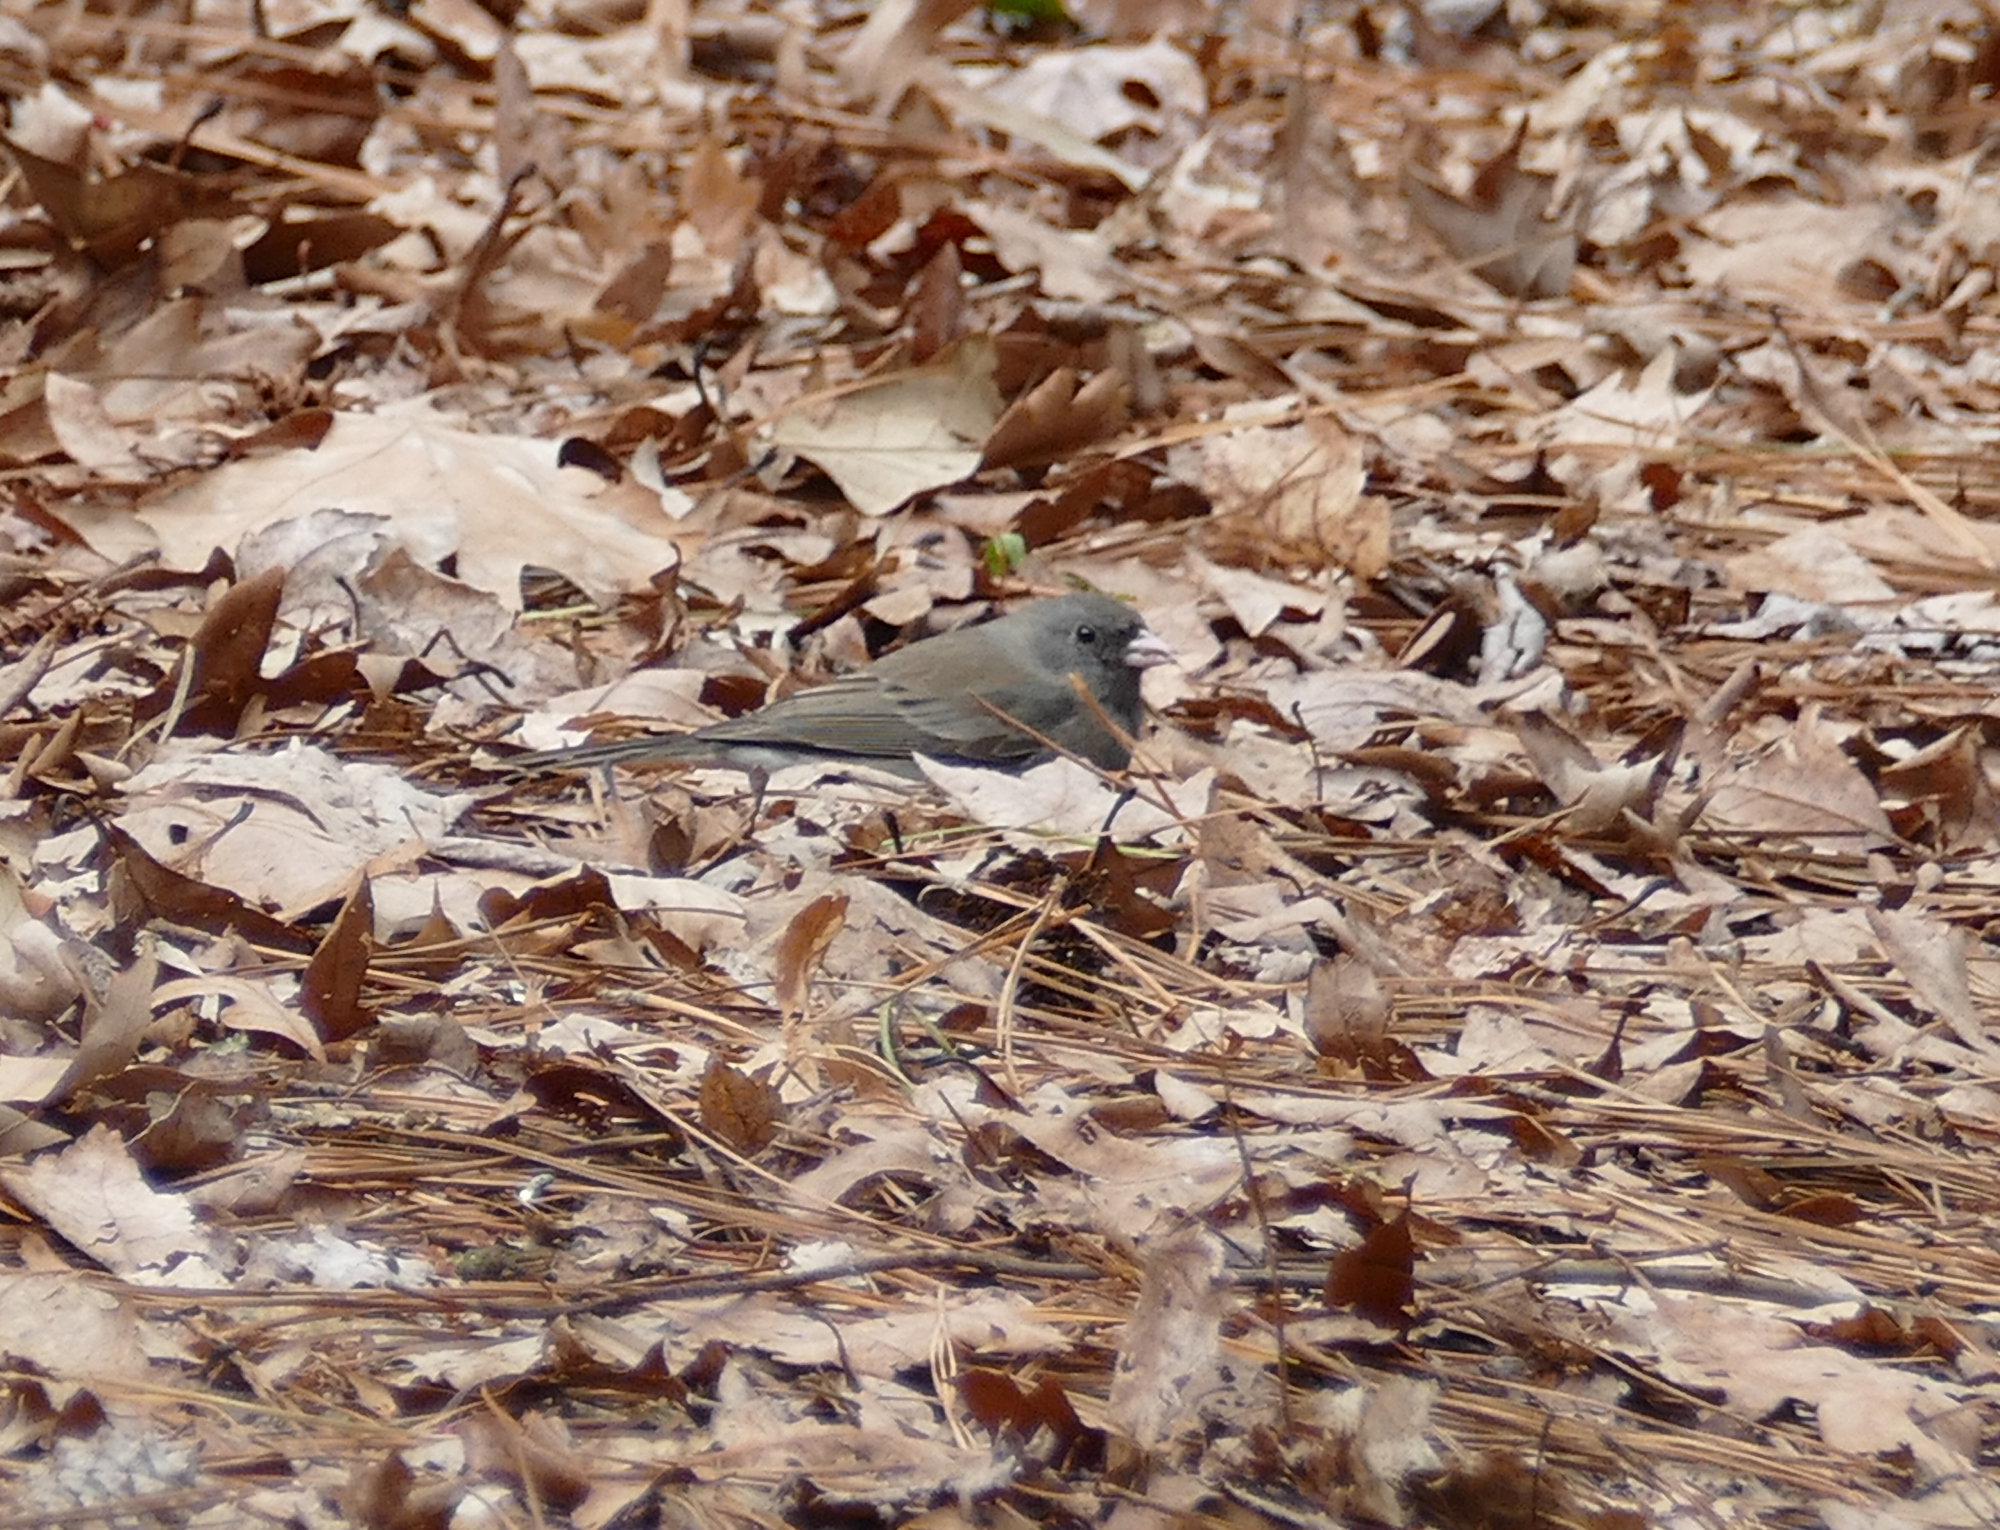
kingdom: Animalia
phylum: Chordata
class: Aves
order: Passeriformes
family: Passerellidae
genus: Junco
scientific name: Junco hyemalis
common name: Dark-eyed junco
